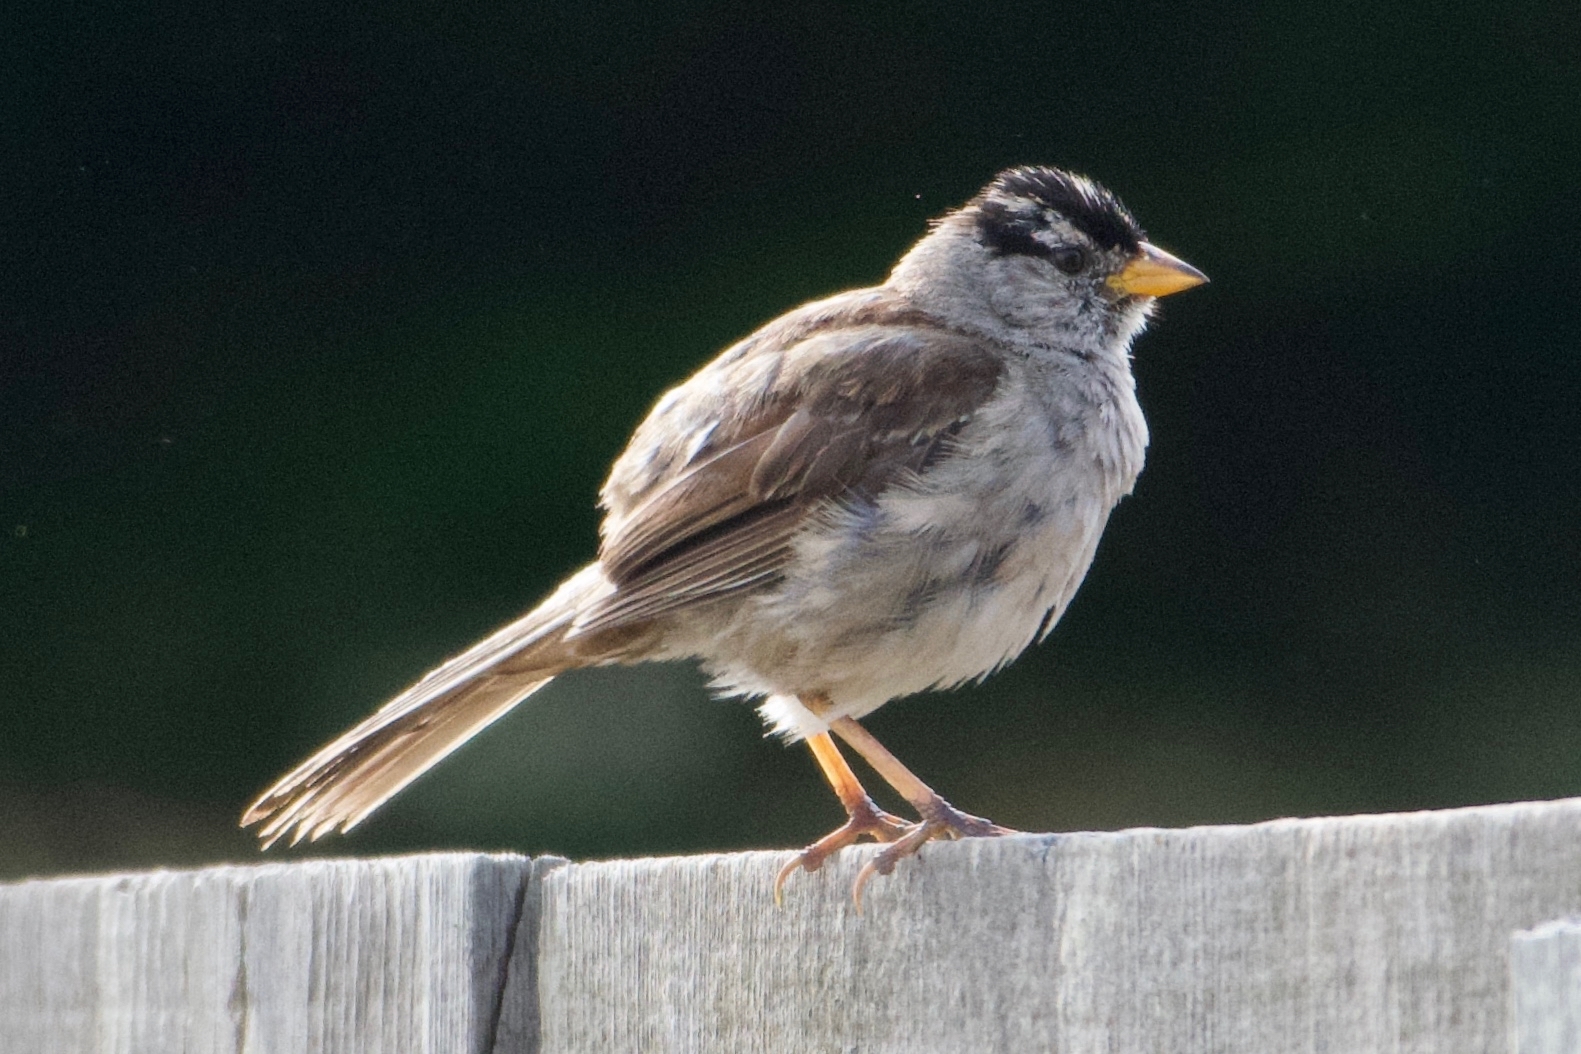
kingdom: Animalia
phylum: Chordata
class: Aves
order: Passeriformes
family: Passerellidae
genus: Zonotrichia
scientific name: Zonotrichia leucophrys
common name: White-crowned sparrow
